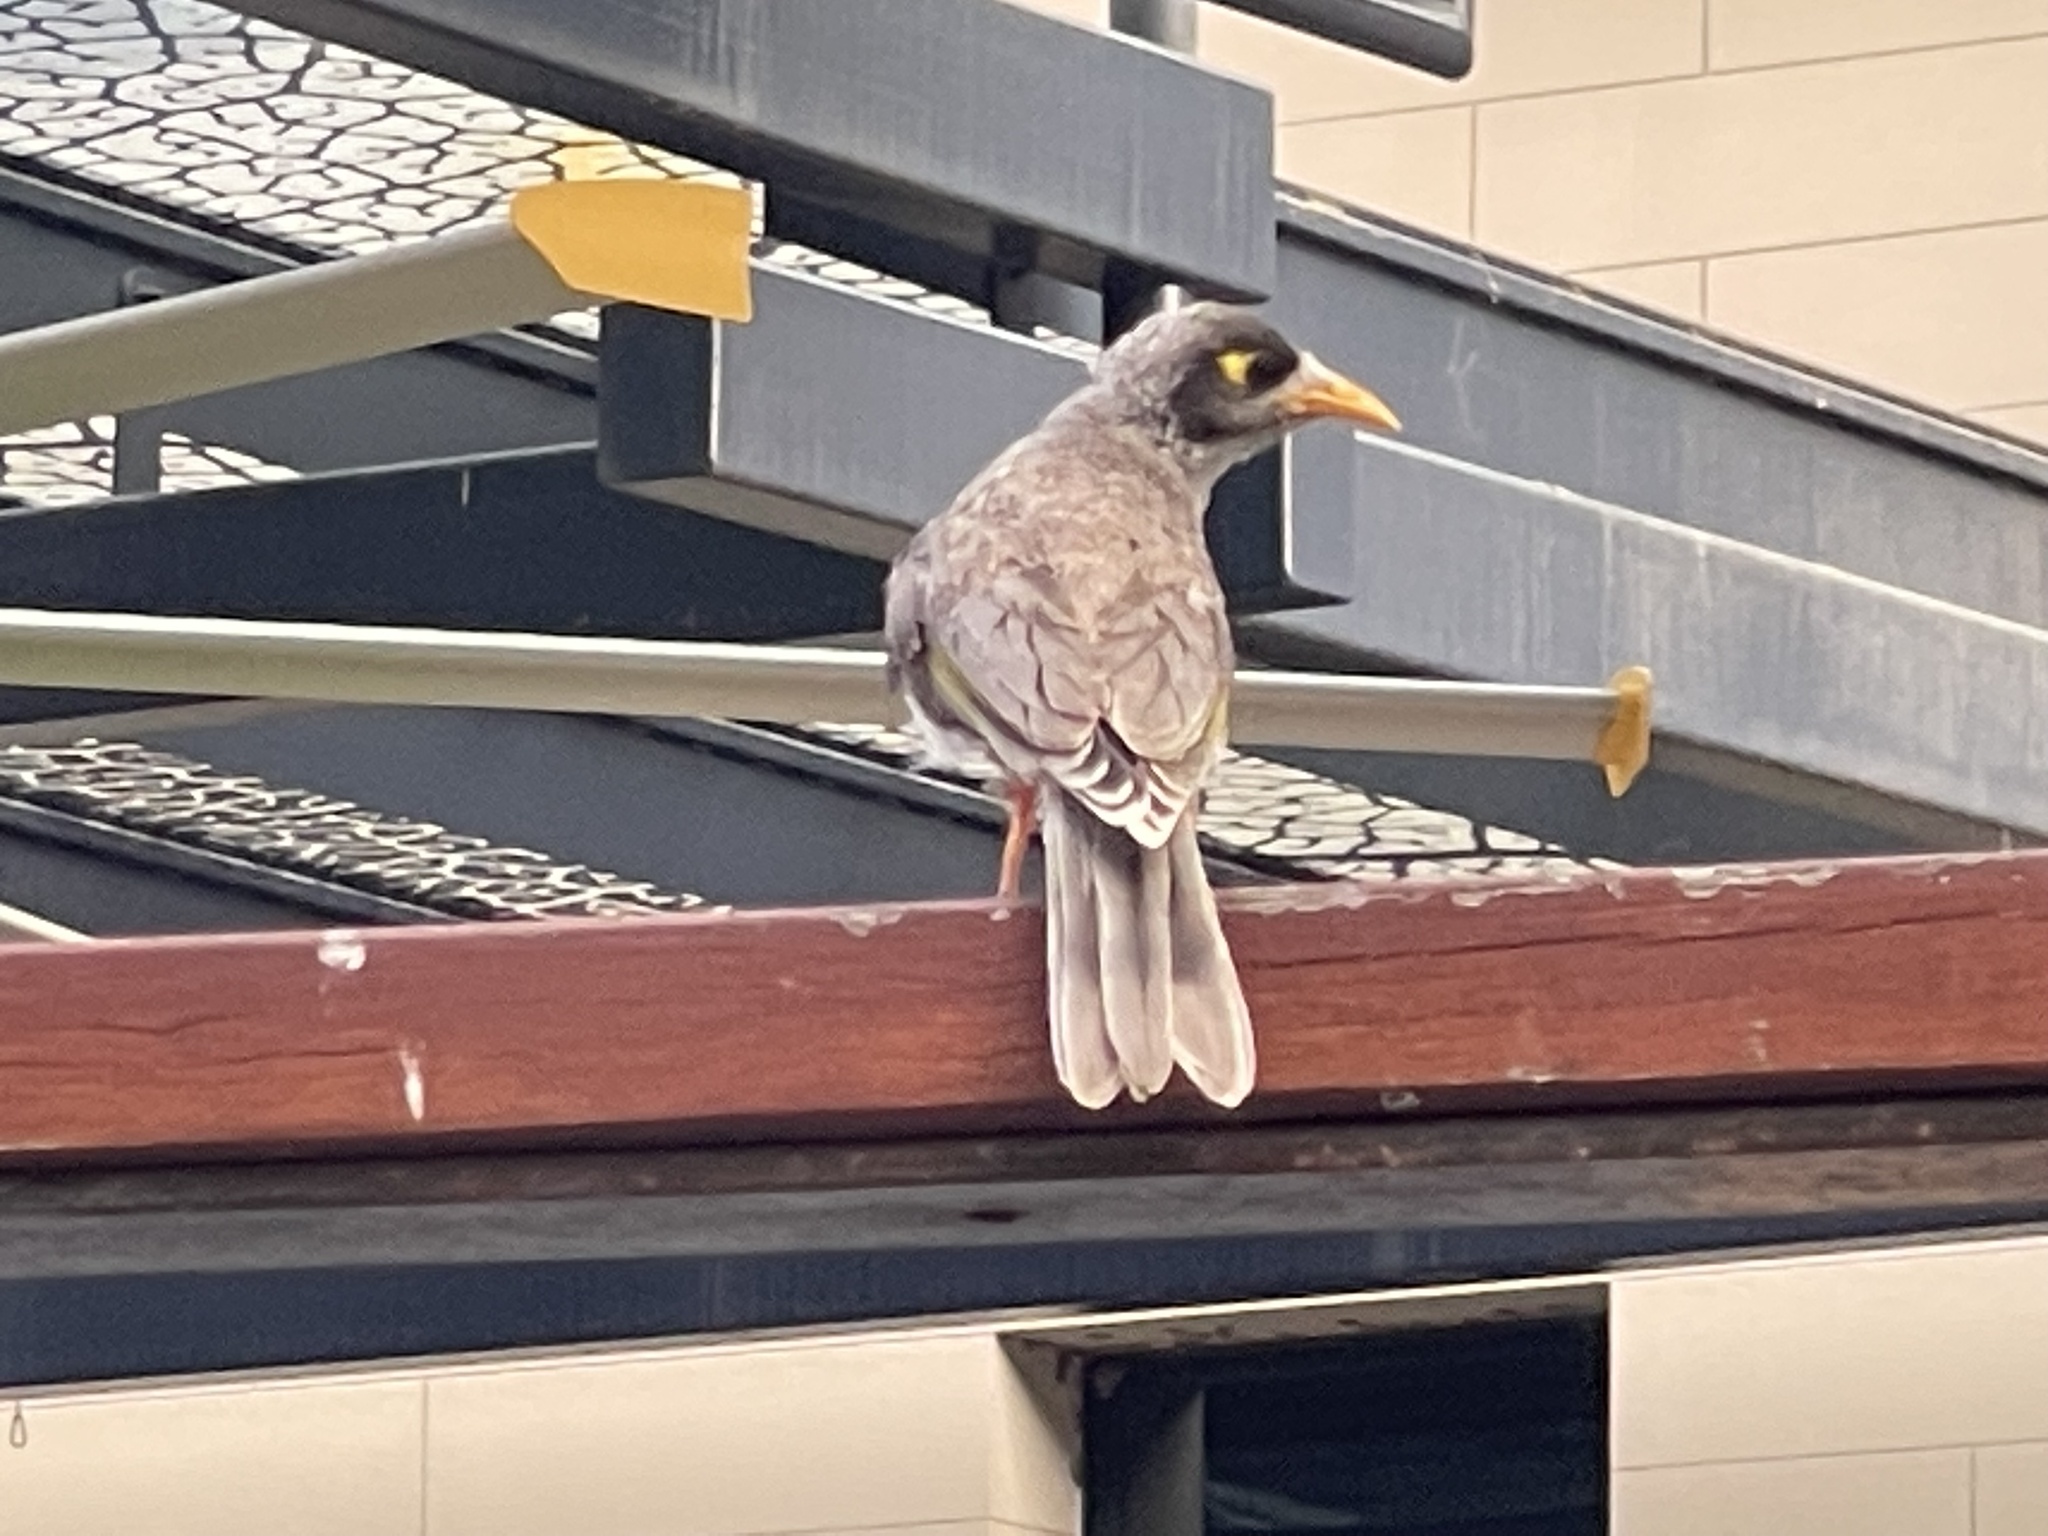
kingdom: Animalia
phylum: Chordata
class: Aves
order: Passeriformes
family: Meliphagidae
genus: Manorina
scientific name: Manorina melanocephala
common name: Noisy miner
